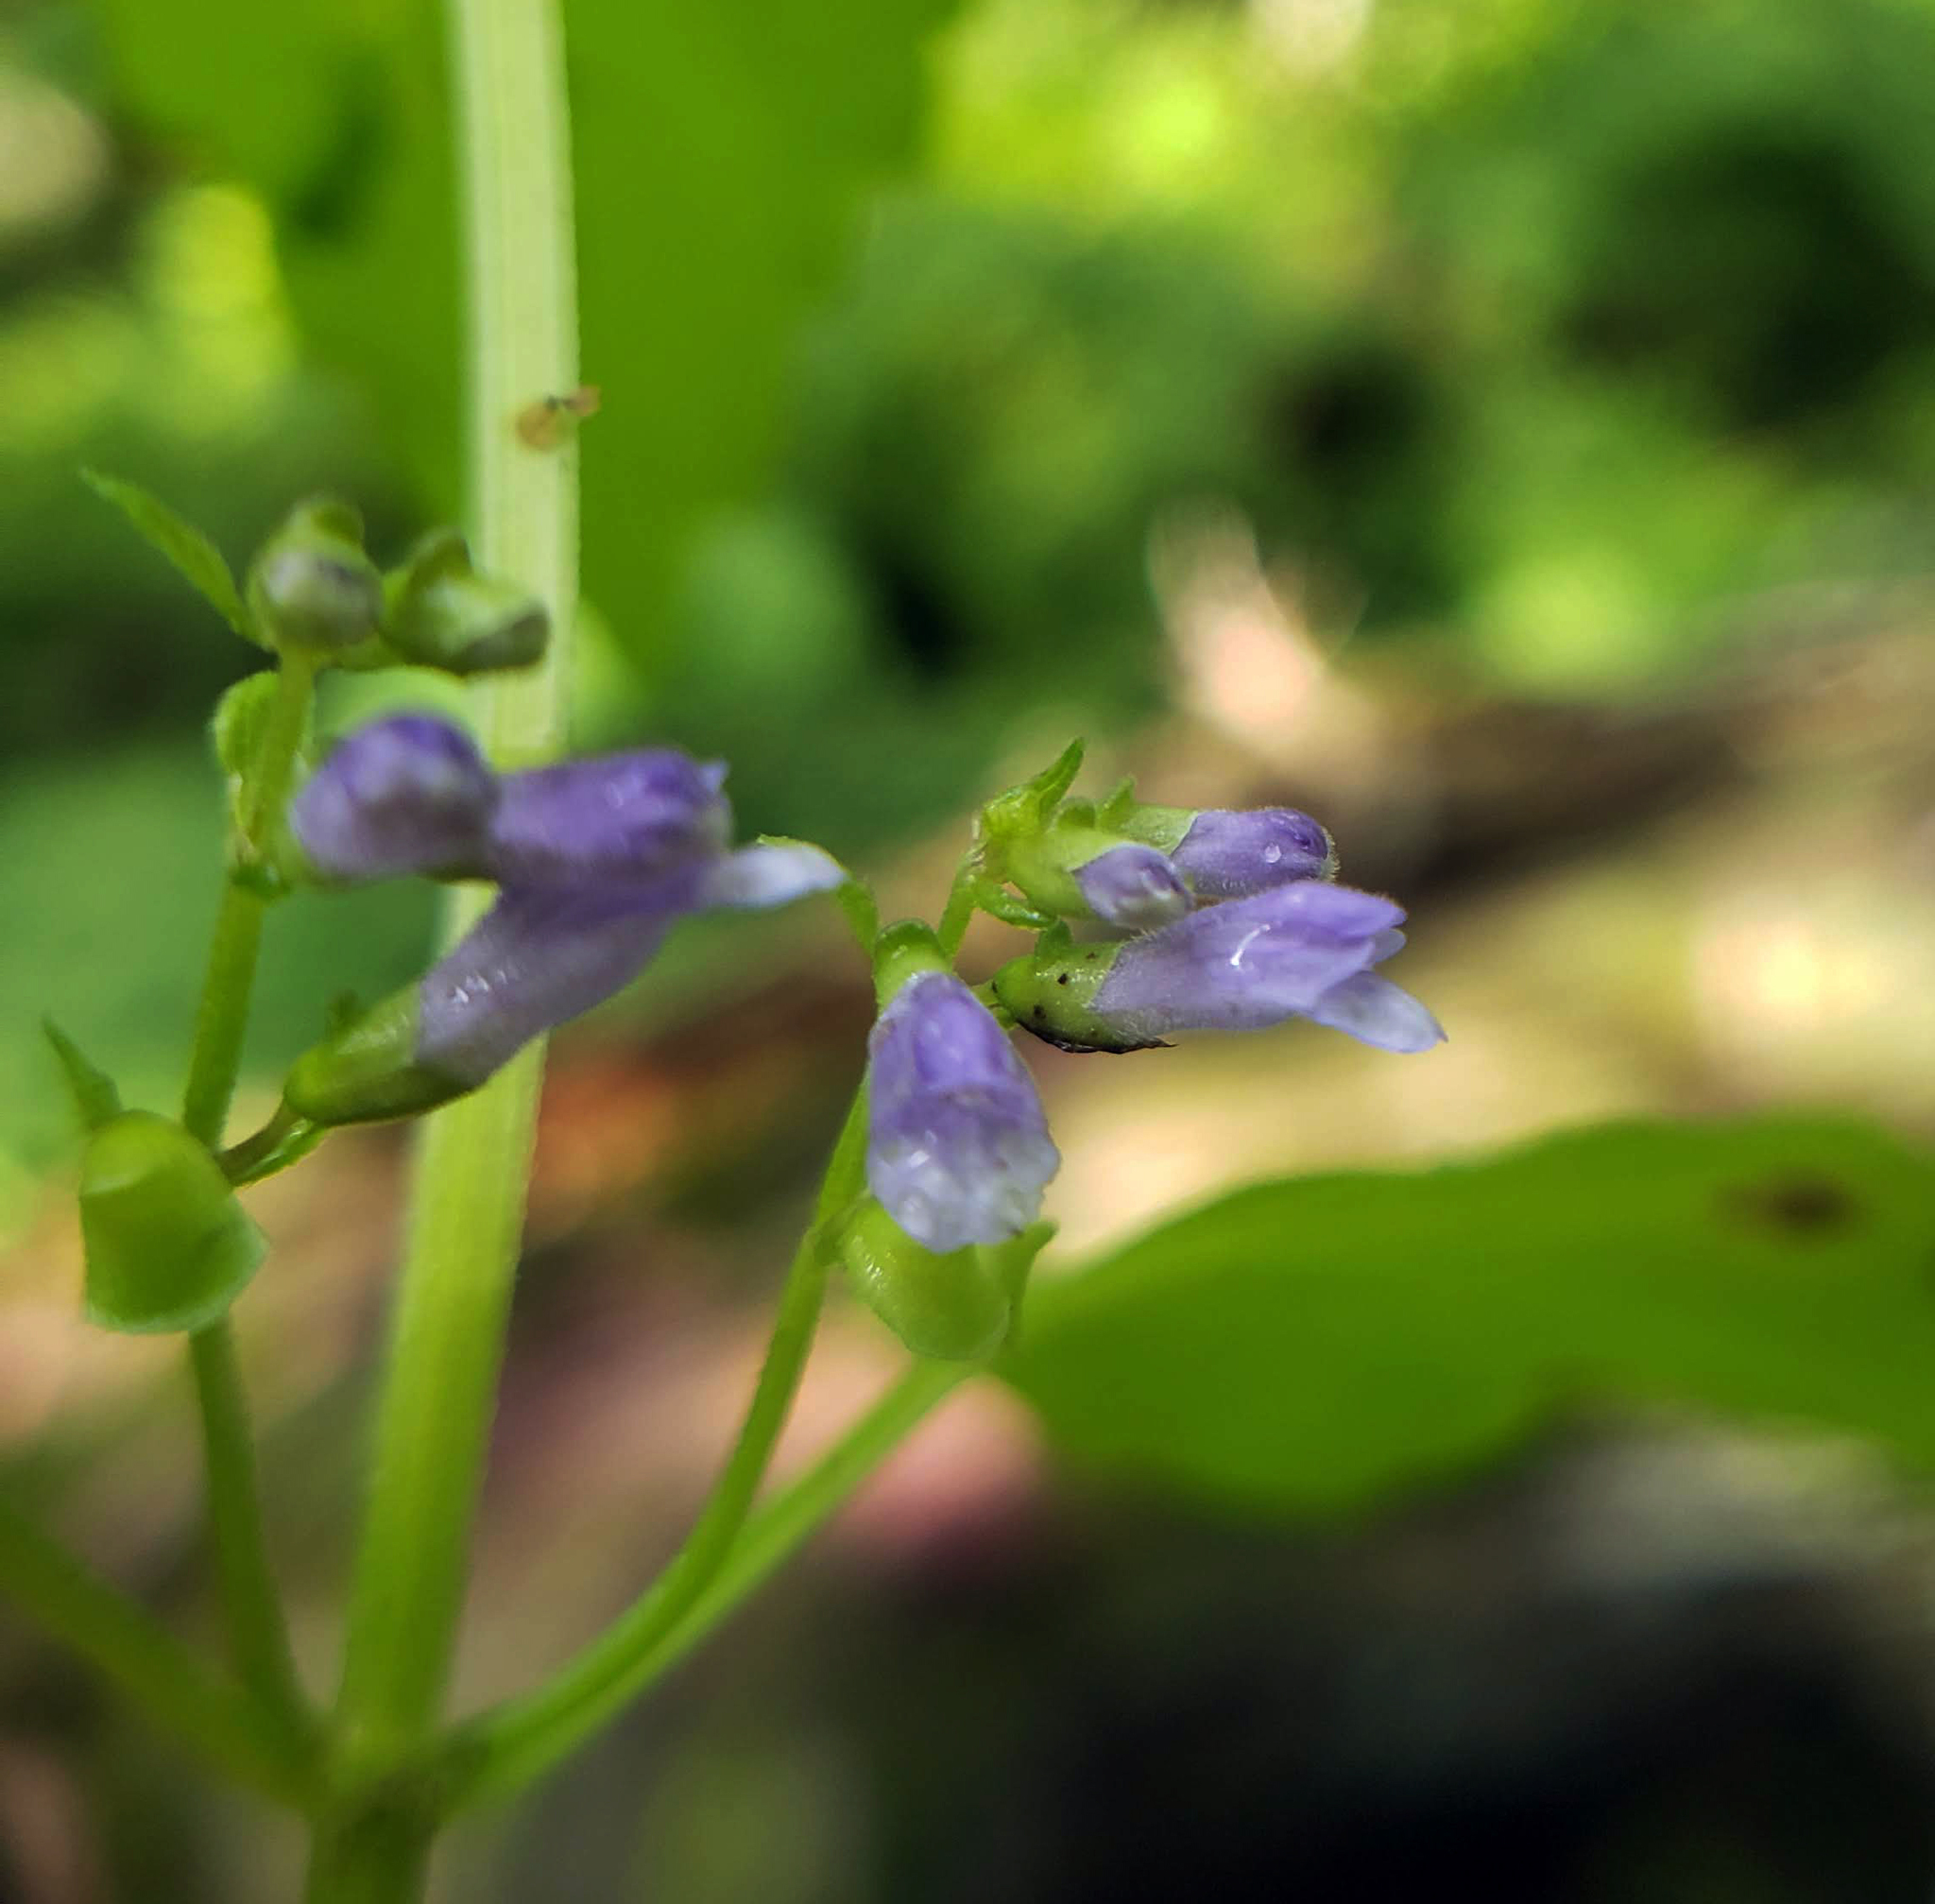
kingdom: Plantae
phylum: Tracheophyta
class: Magnoliopsida
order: Lamiales
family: Lamiaceae
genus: Scutellaria
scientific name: Scutellaria lateriflora
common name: Blue skullcap
